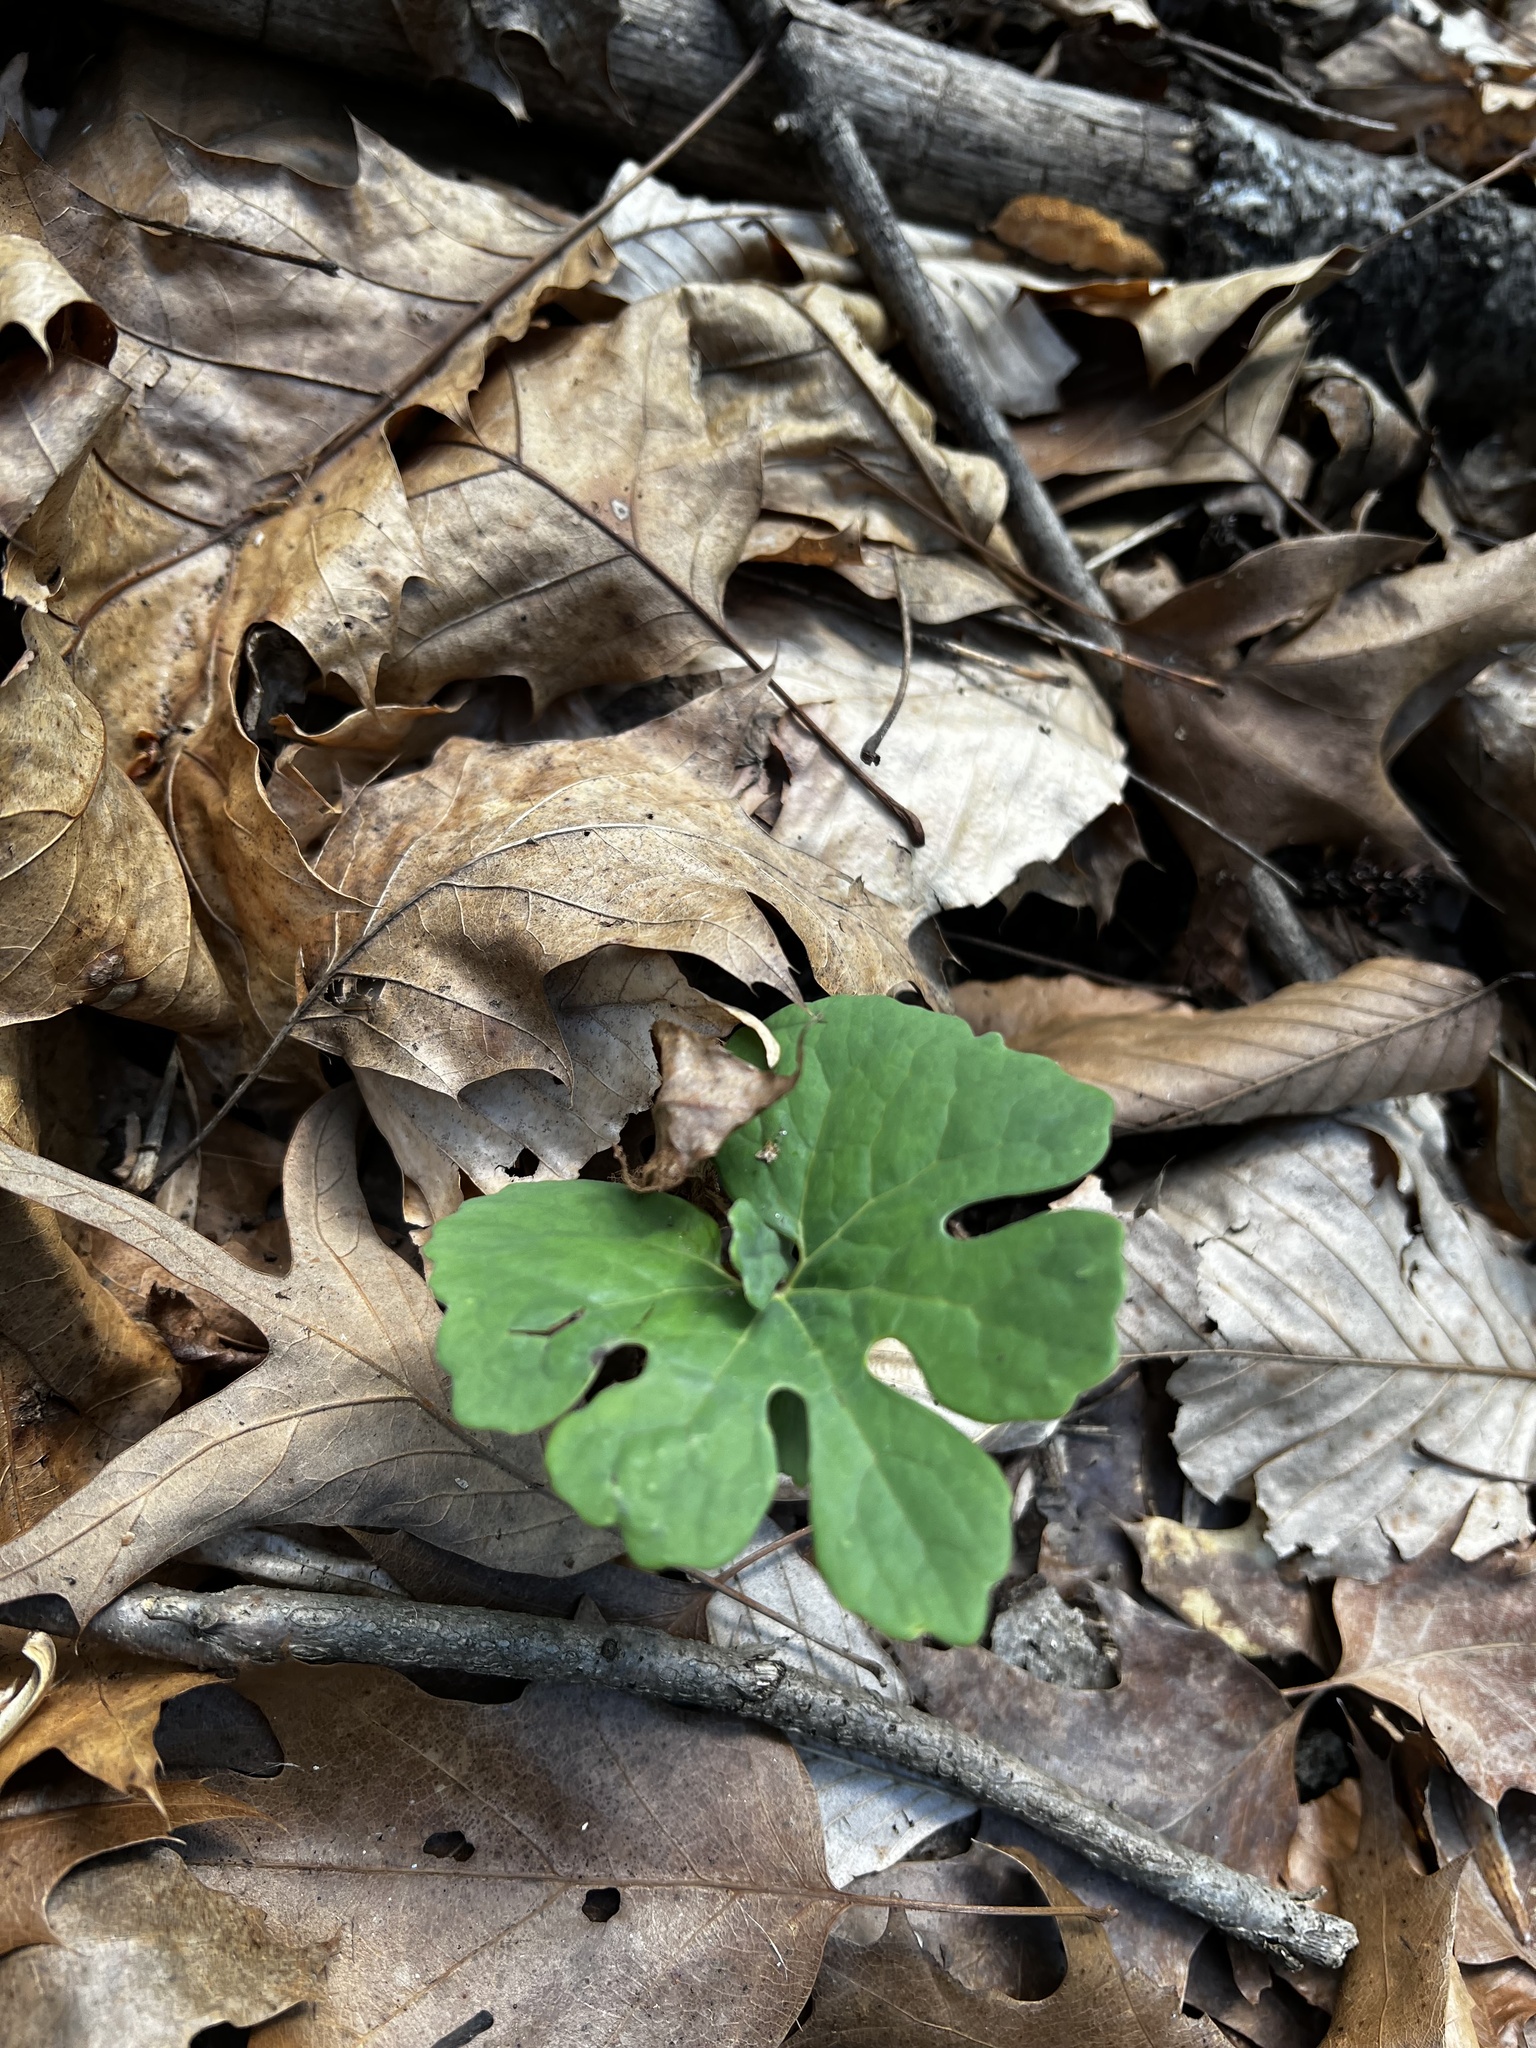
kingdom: Plantae
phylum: Tracheophyta
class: Magnoliopsida
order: Ranunculales
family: Papaveraceae
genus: Sanguinaria
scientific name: Sanguinaria canadensis
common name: Bloodroot
